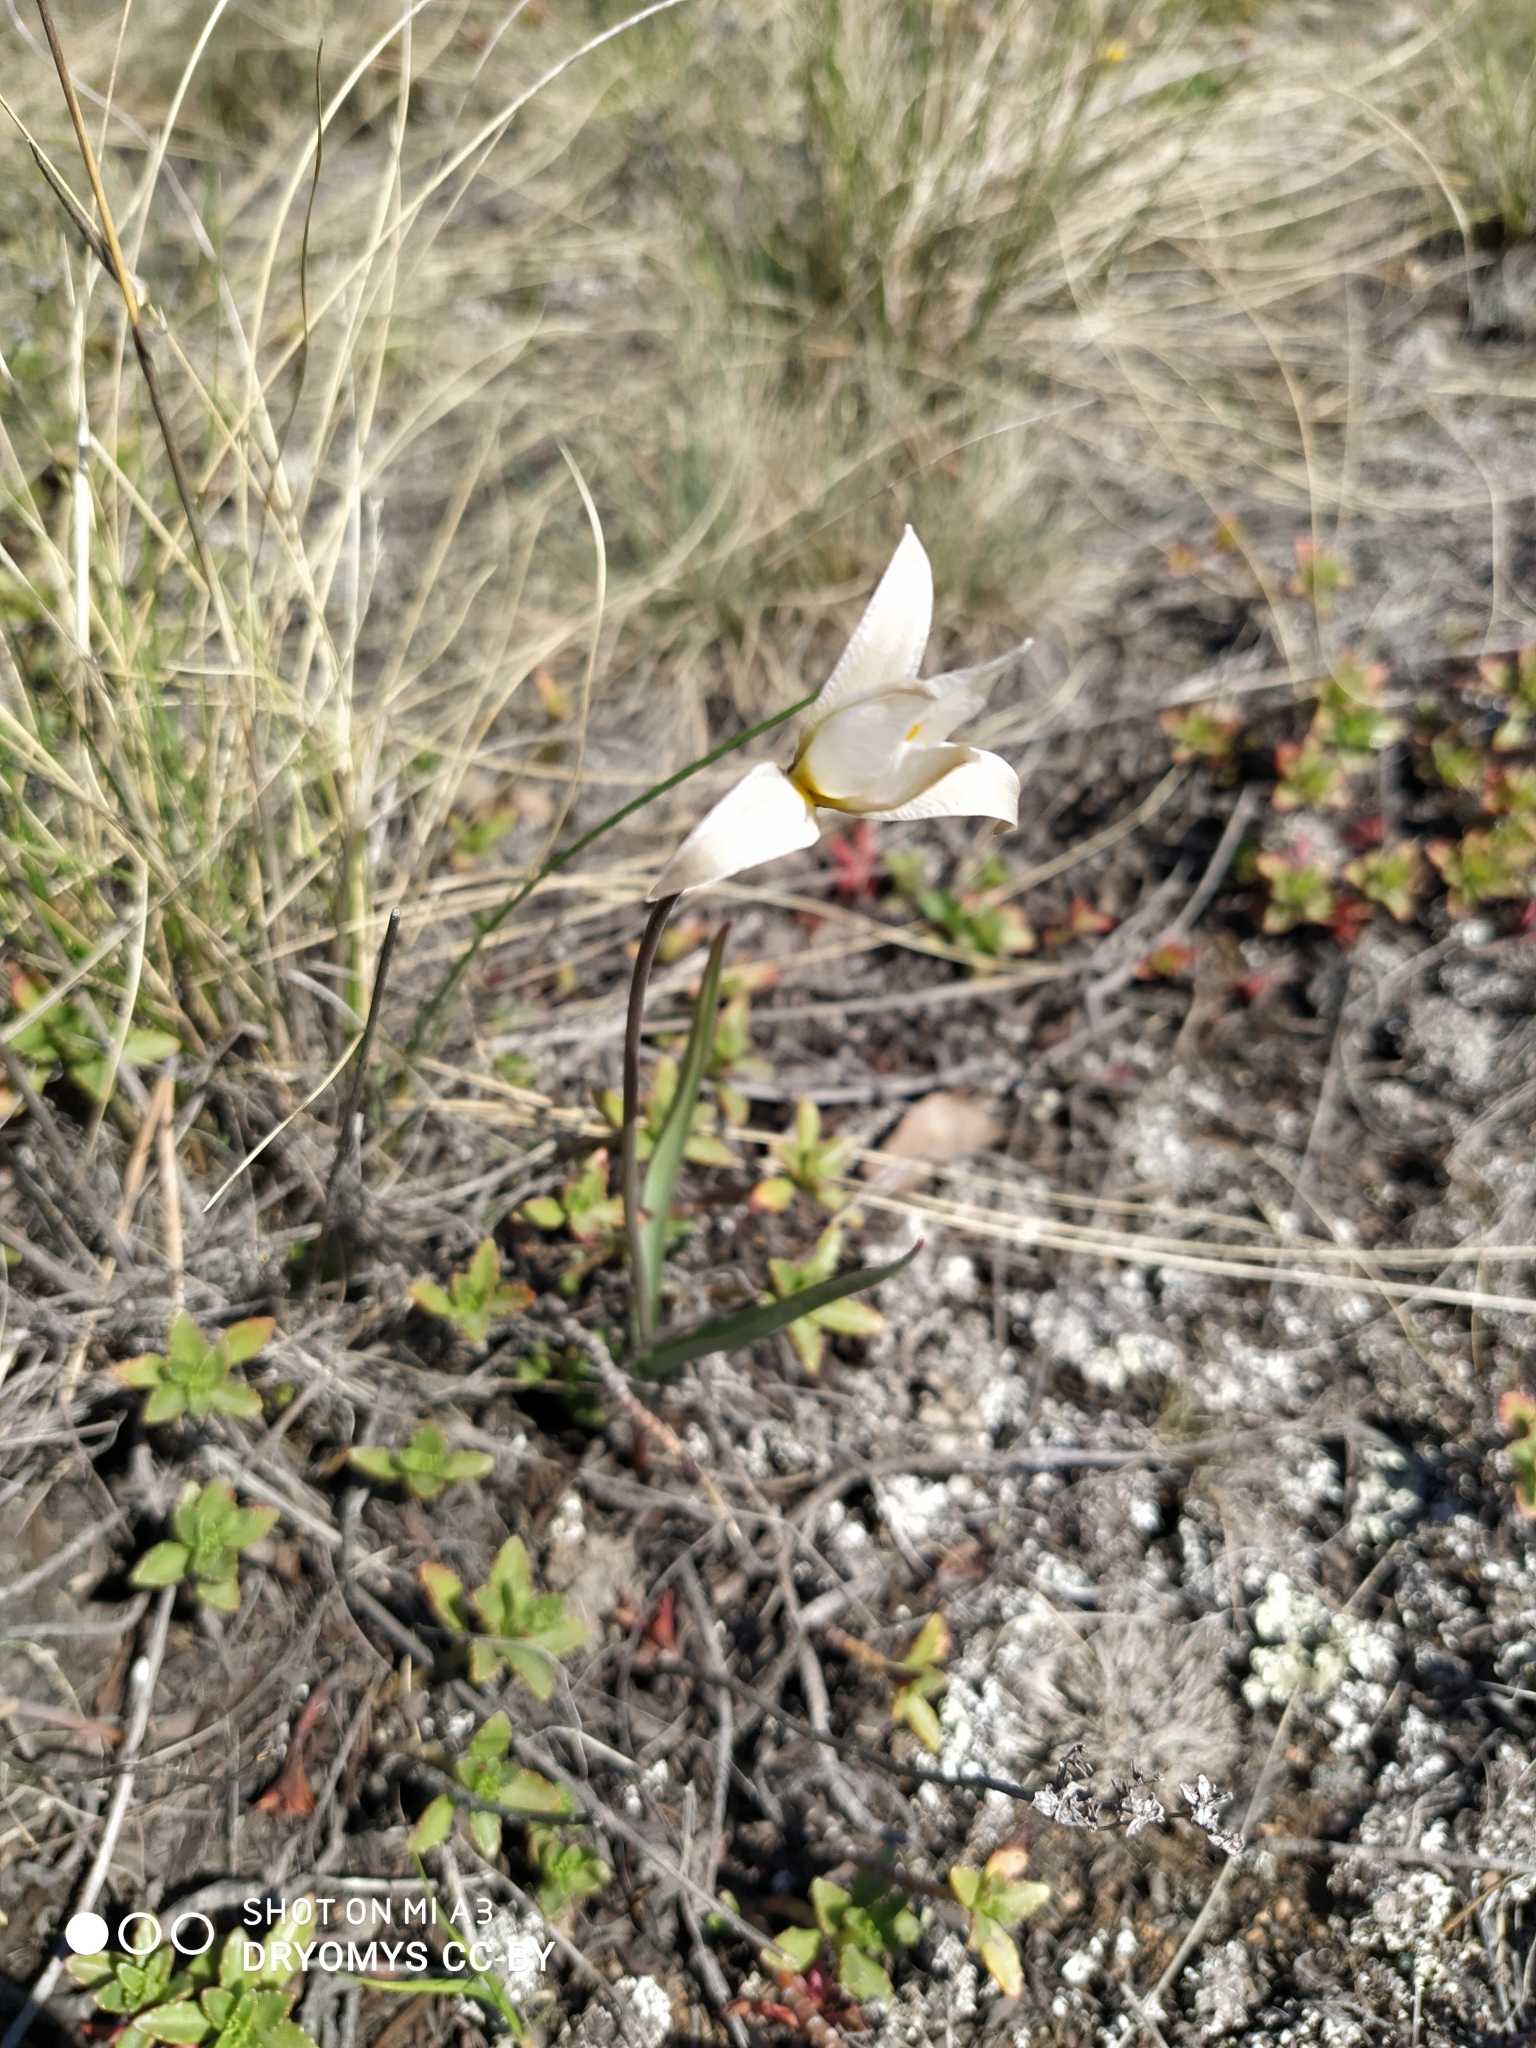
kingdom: Plantae
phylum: Tracheophyta
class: Liliopsida
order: Liliales
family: Liliaceae
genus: Tulipa
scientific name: Tulipa patens
